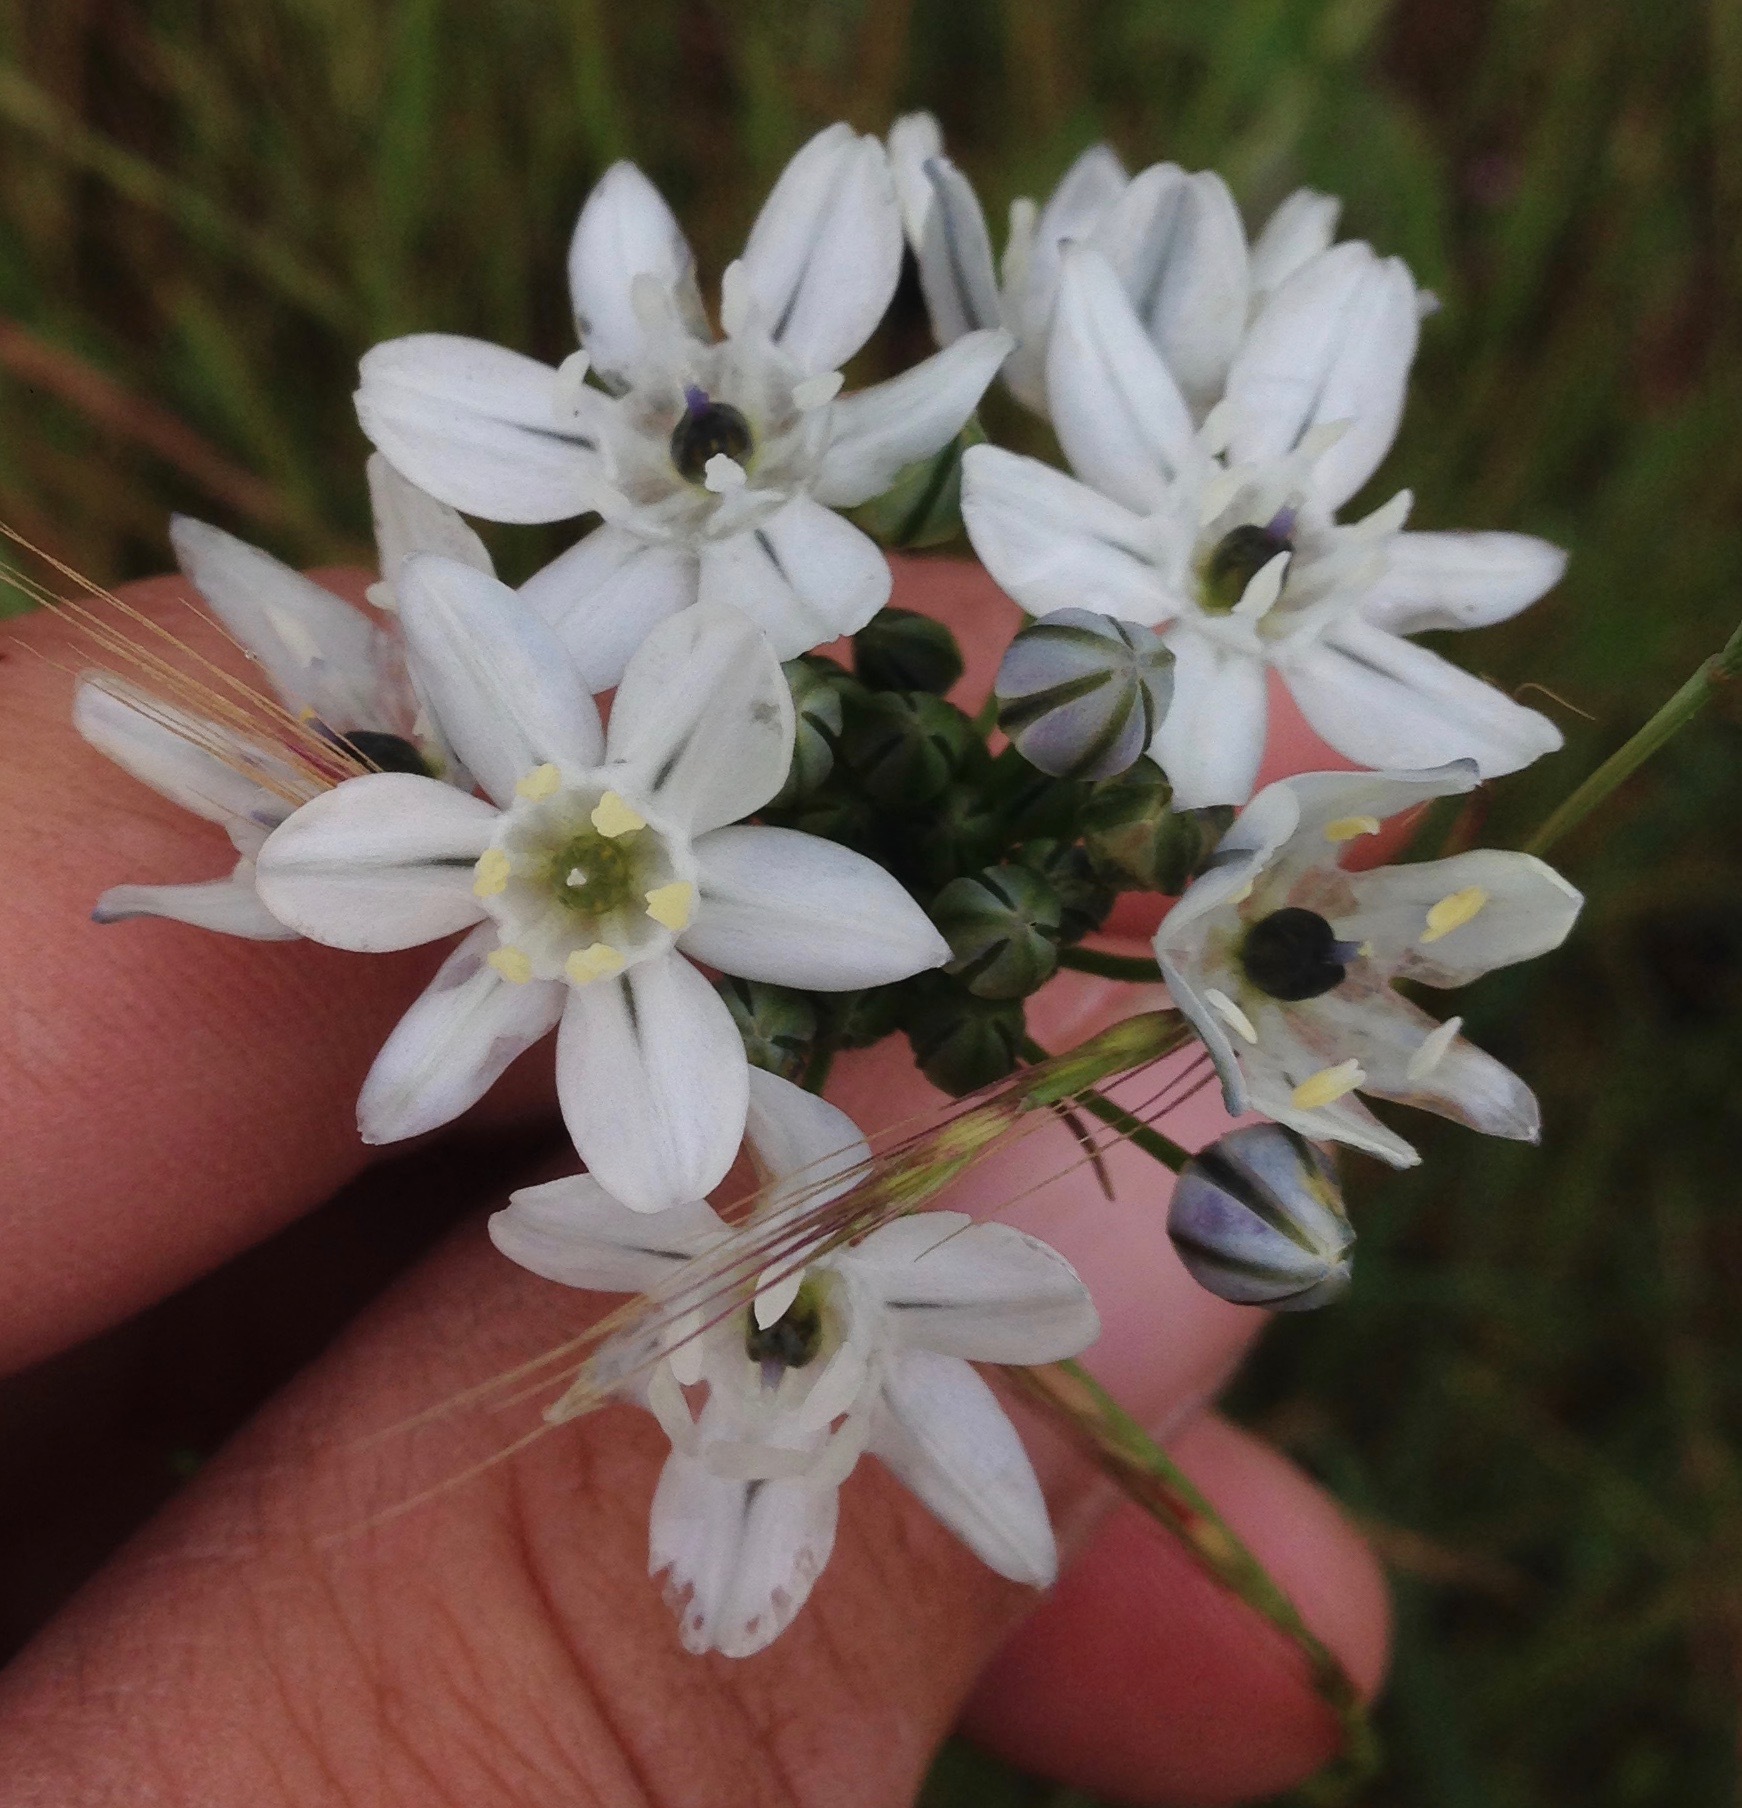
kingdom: Plantae
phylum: Tracheophyta
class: Liliopsida
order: Asparagales
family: Asparagaceae
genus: Triteleia
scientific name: Triteleia hyacinthina
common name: White brodiaea
